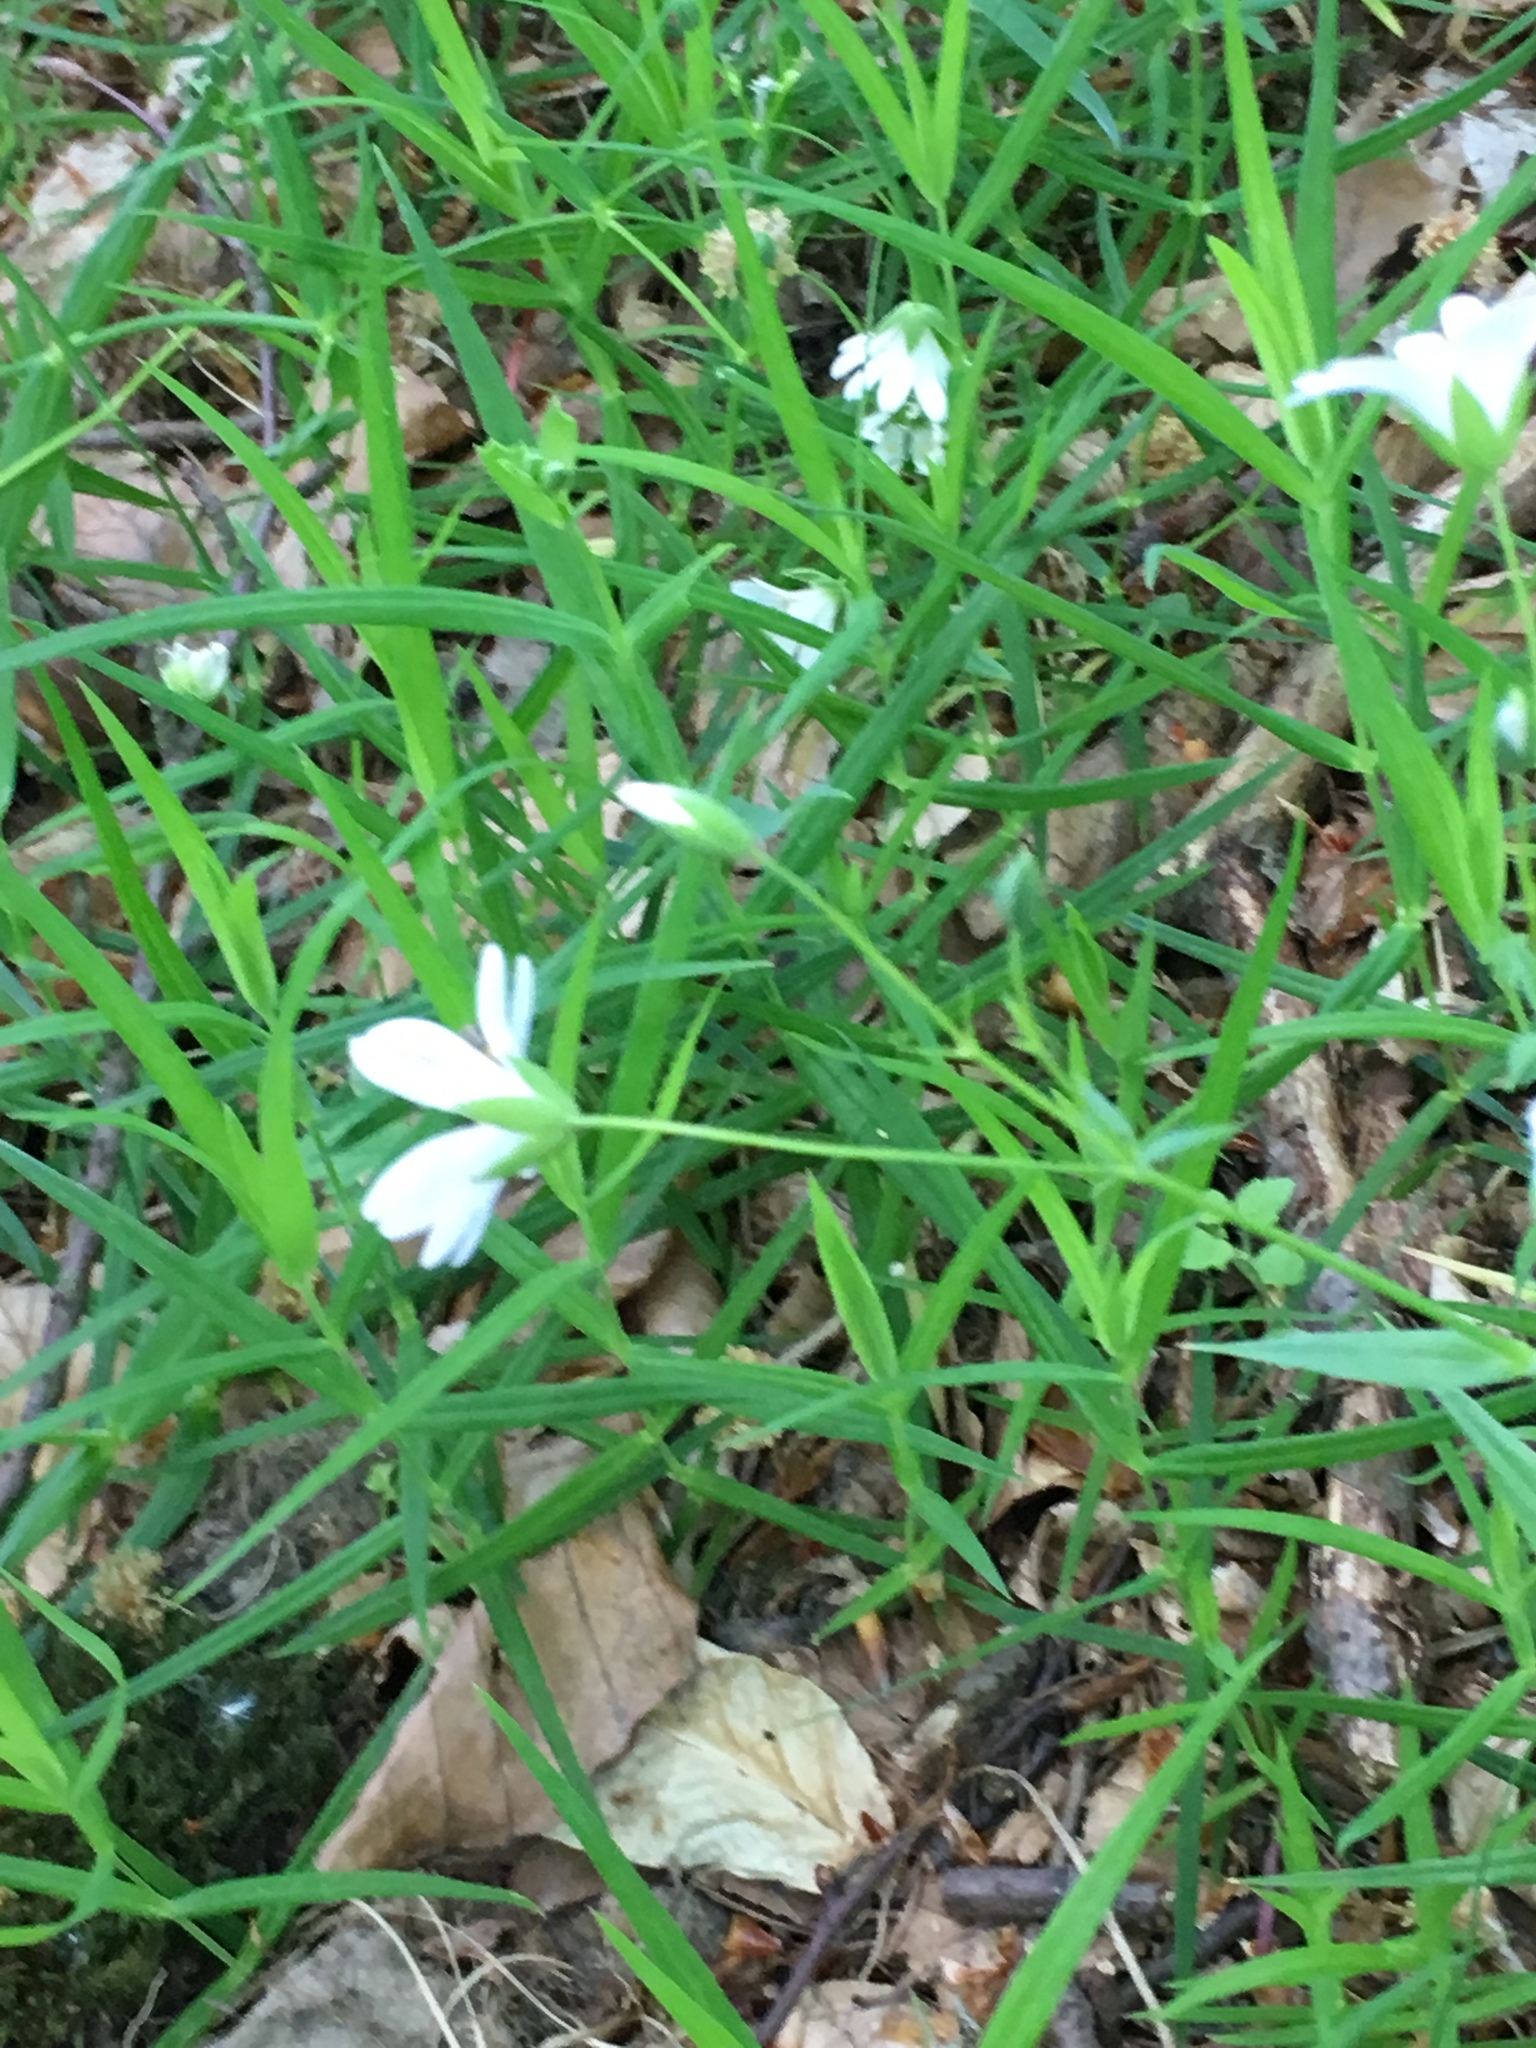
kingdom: Plantae
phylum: Tracheophyta
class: Magnoliopsida
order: Caryophyllales
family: Caryophyllaceae
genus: Rabelera
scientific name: Rabelera holostea
